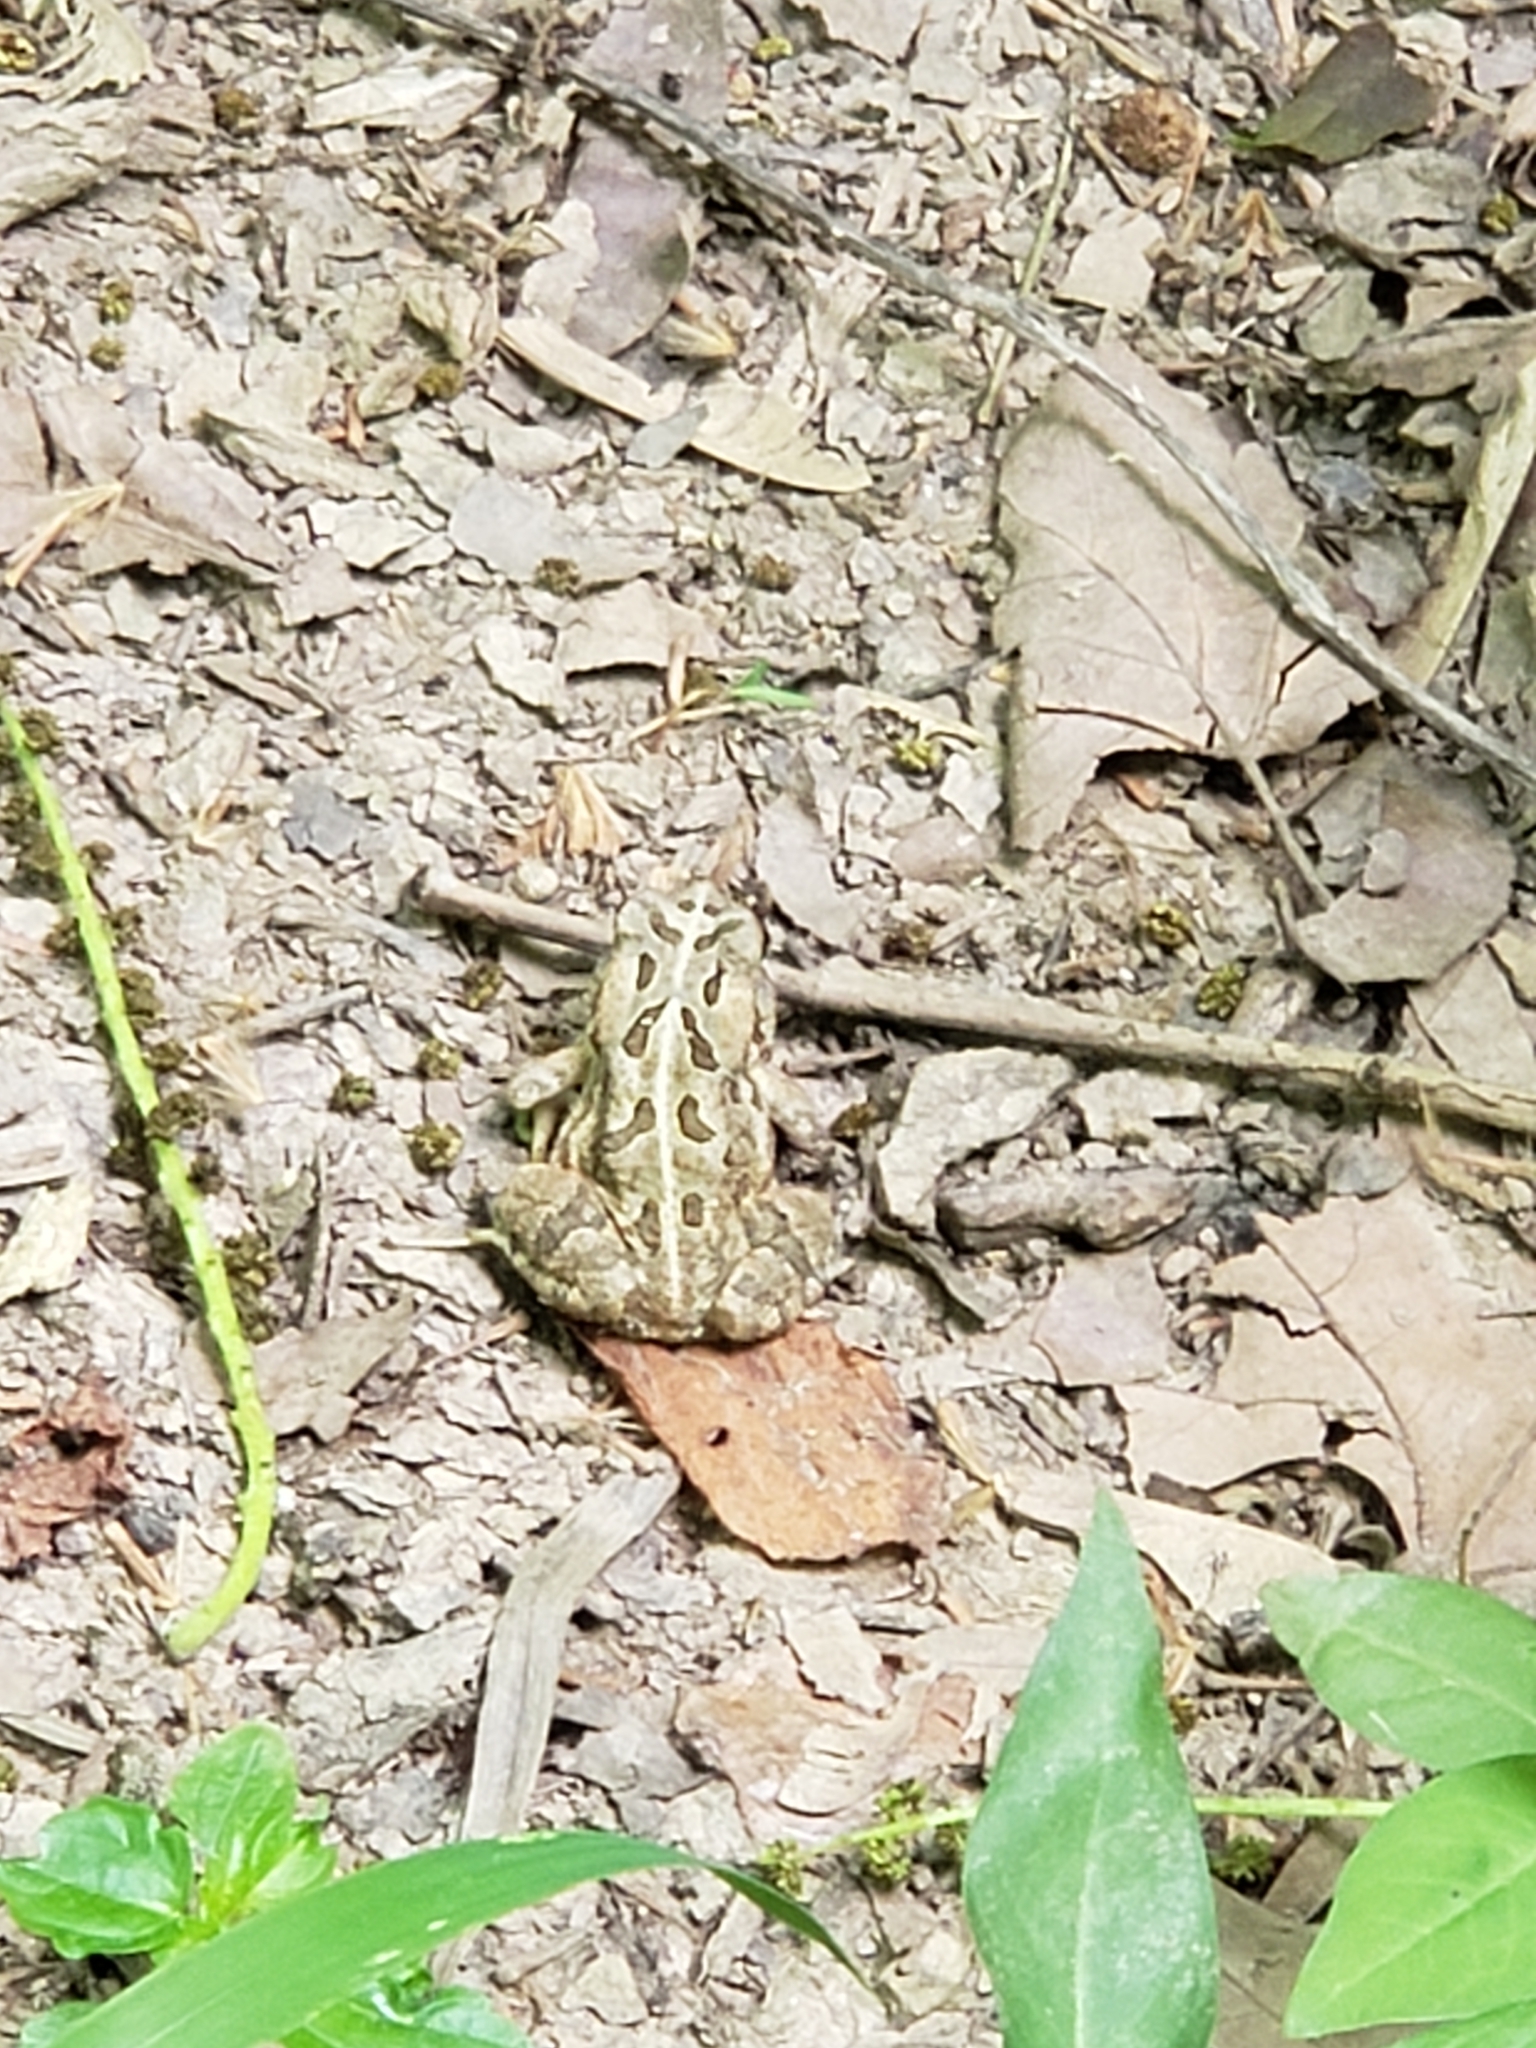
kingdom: Animalia
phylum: Chordata
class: Amphibia
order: Anura
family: Bufonidae
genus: Anaxyrus
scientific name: Anaxyrus fowleri
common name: Fowler's toad
